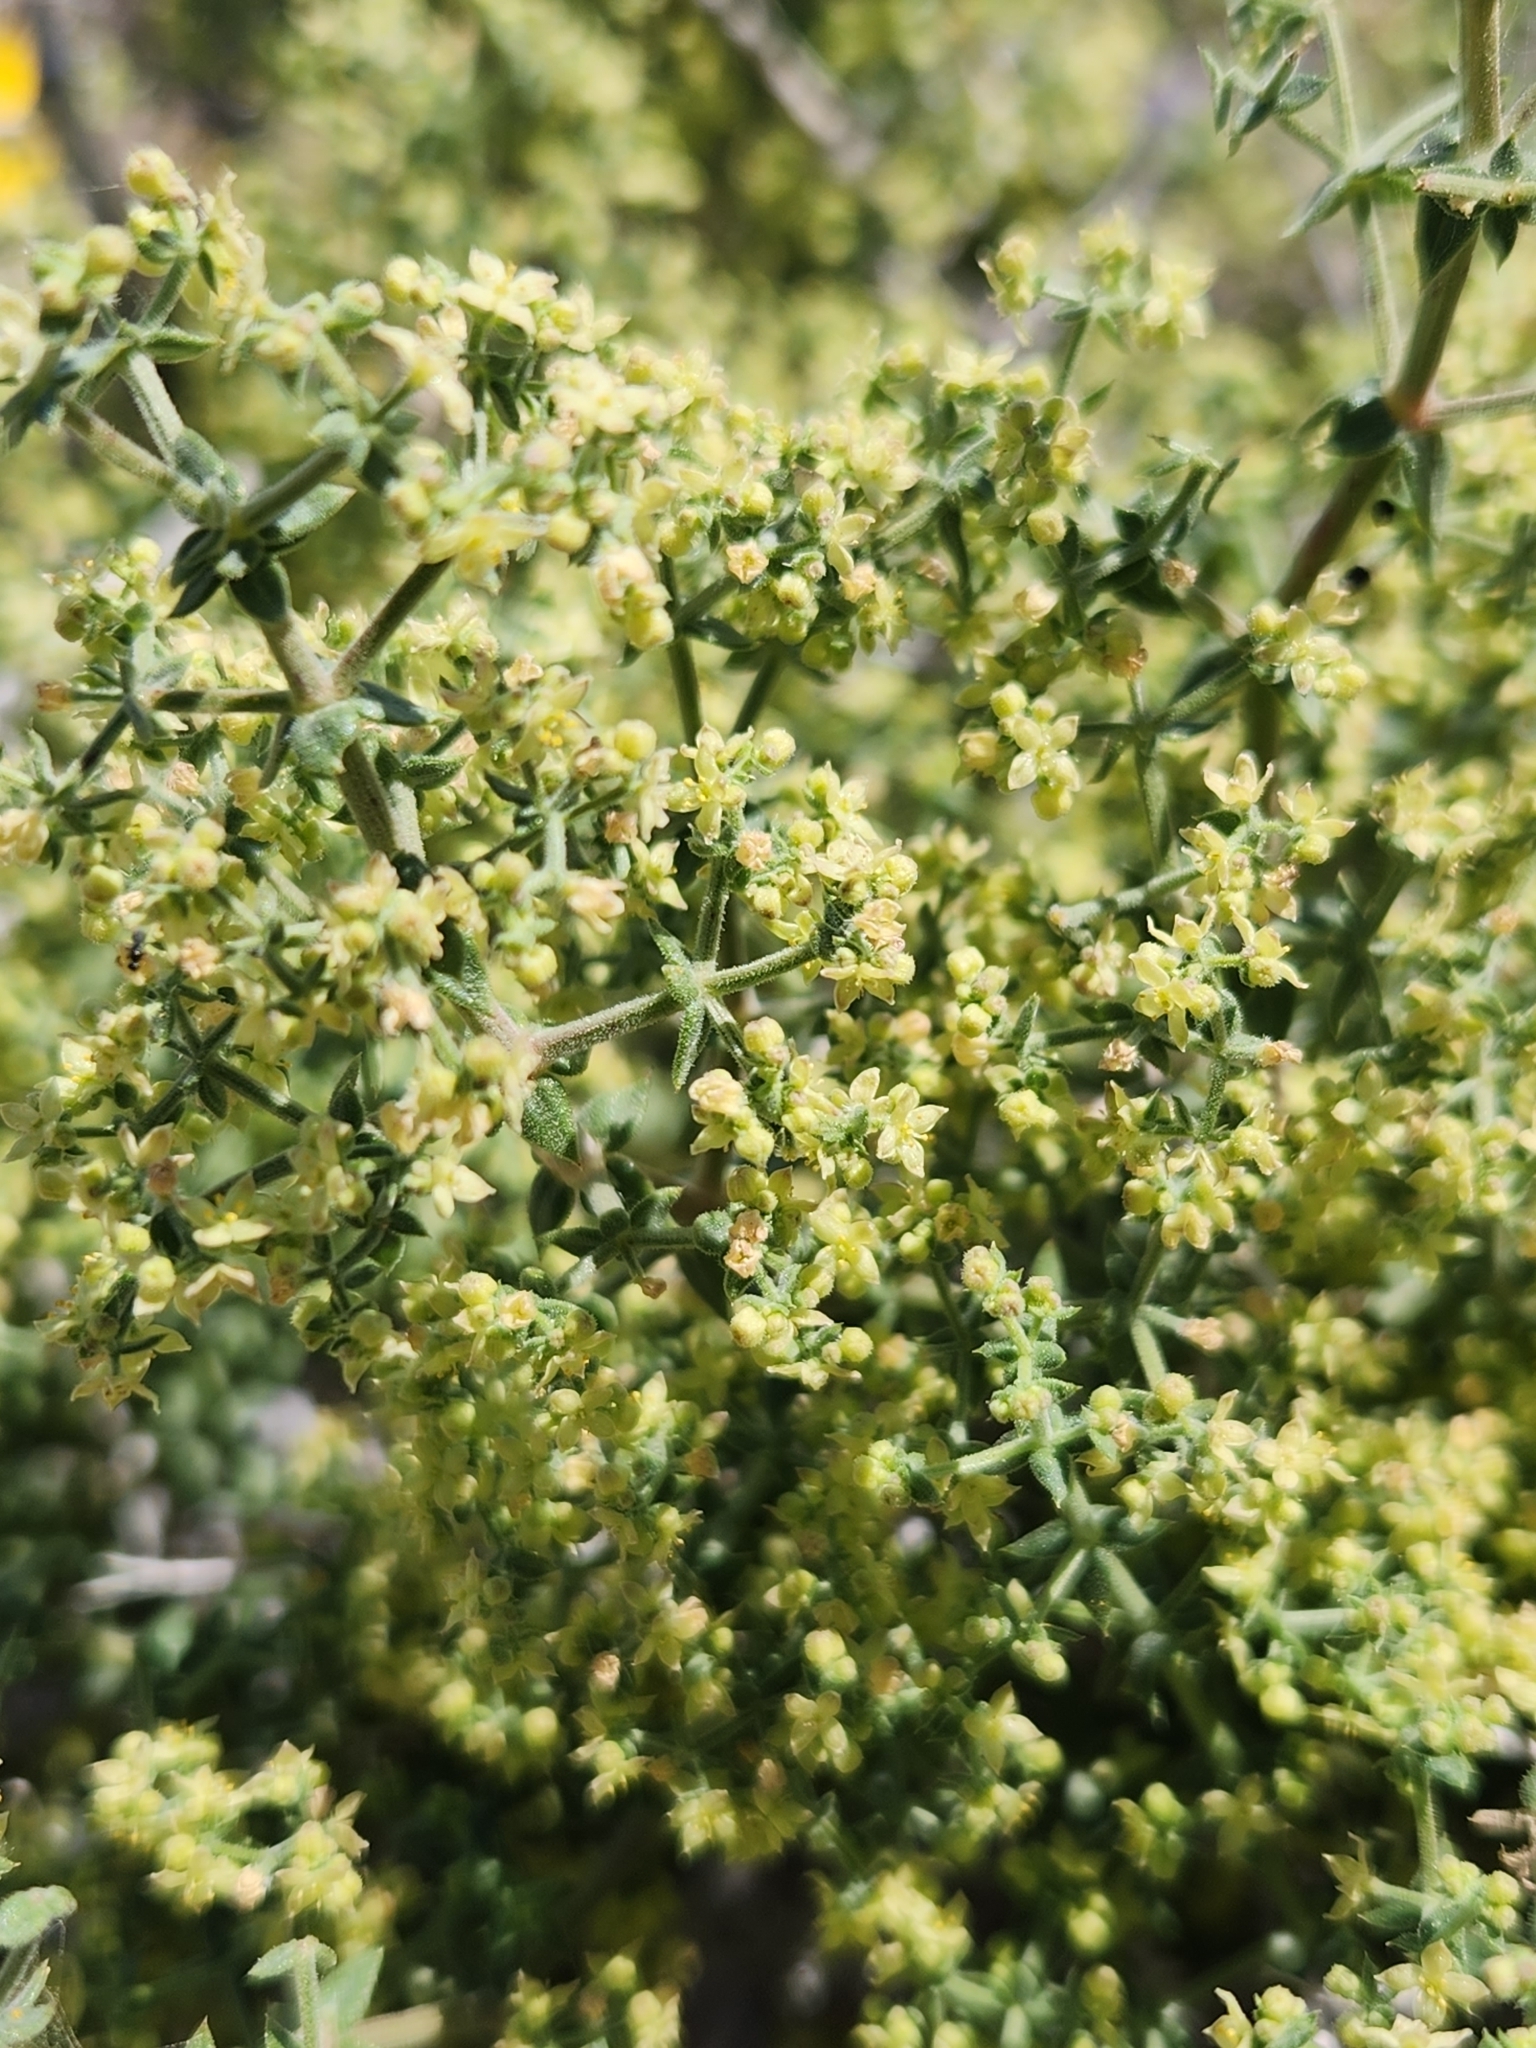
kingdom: Plantae
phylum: Tracheophyta
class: Magnoliopsida
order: Gentianales
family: Rubiaceae
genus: Galium
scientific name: Galium stellatum
